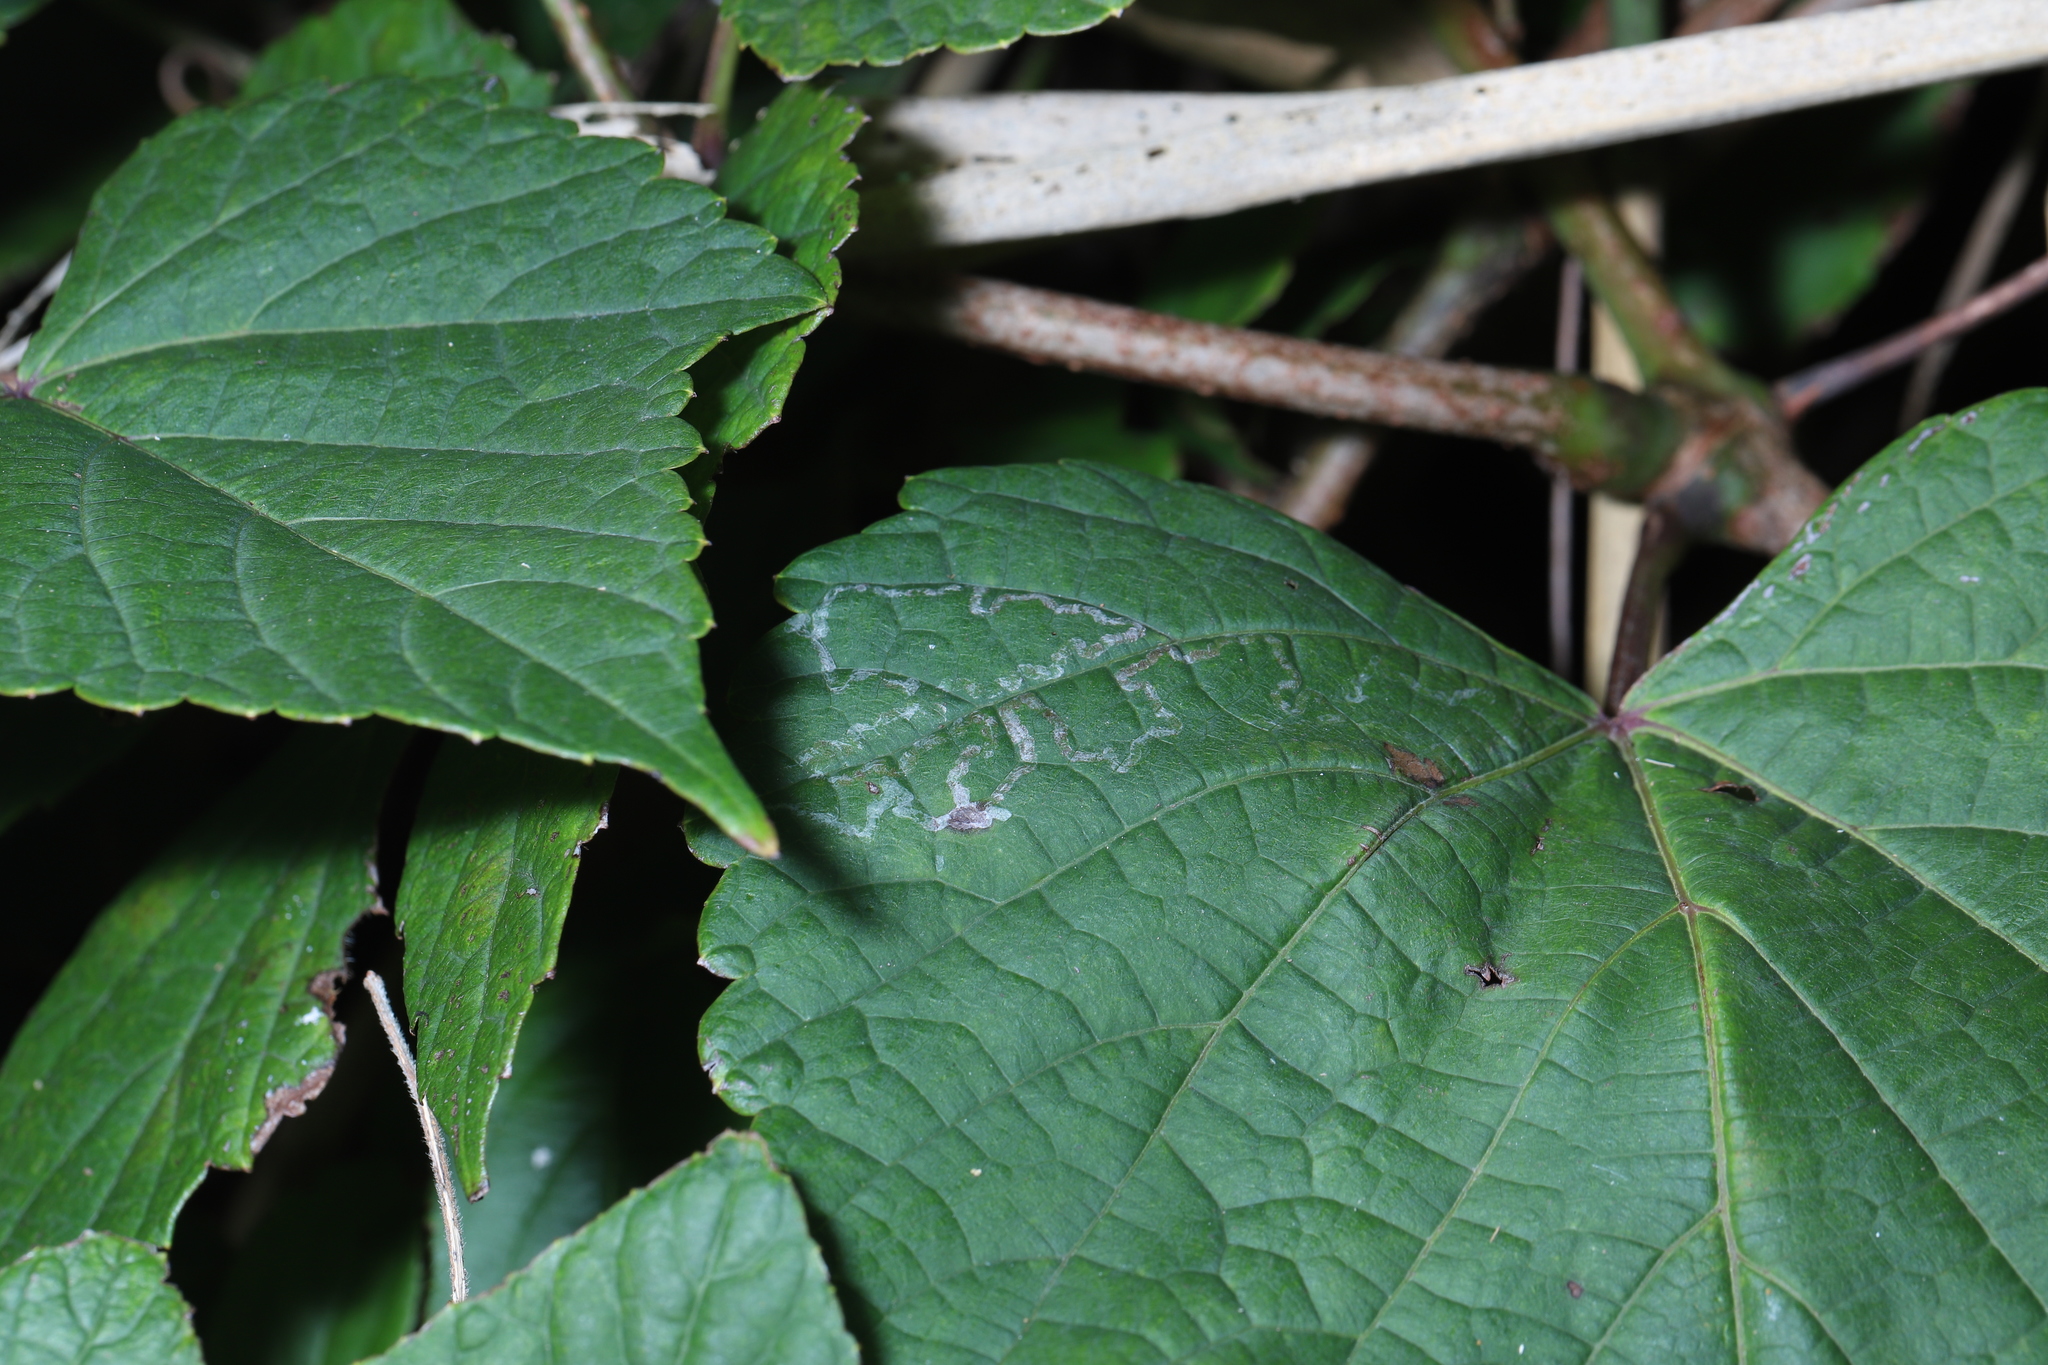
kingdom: Animalia
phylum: Arthropoda
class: Insecta
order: Lepidoptera
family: Gracillariidae
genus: Phyllocnistis
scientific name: Phyllocnistis vitegenella
